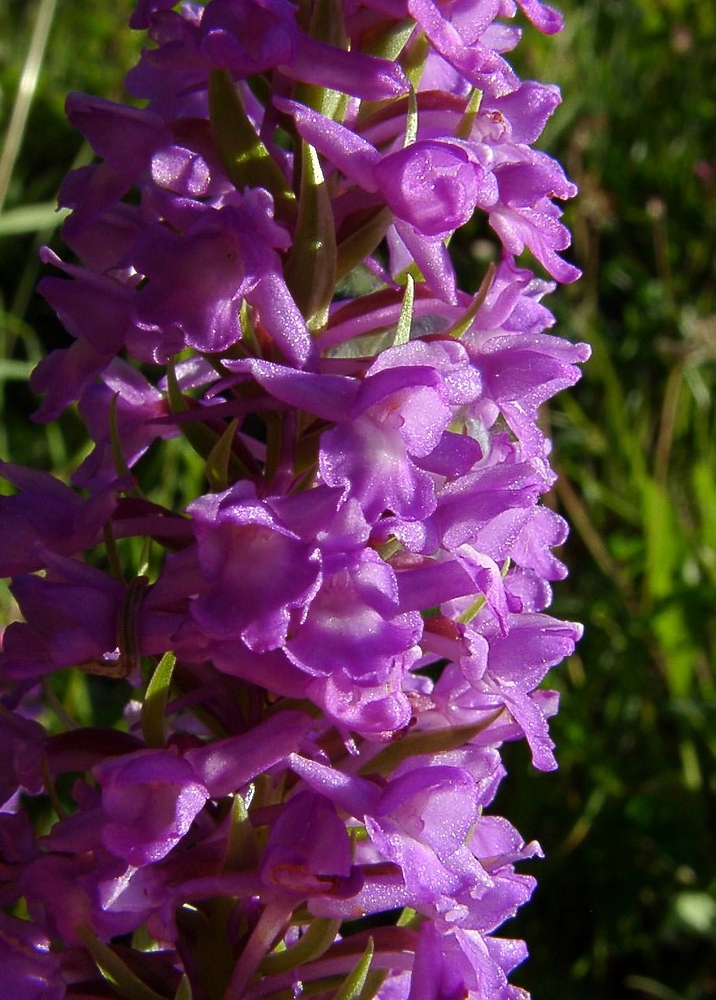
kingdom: Plantae
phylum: Tracheophyta
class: Liliopsida
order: Asparagales
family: Orchidaceae
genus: Gymnadenia
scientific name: Gymnadenia conopsea
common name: Fragrant orchid
